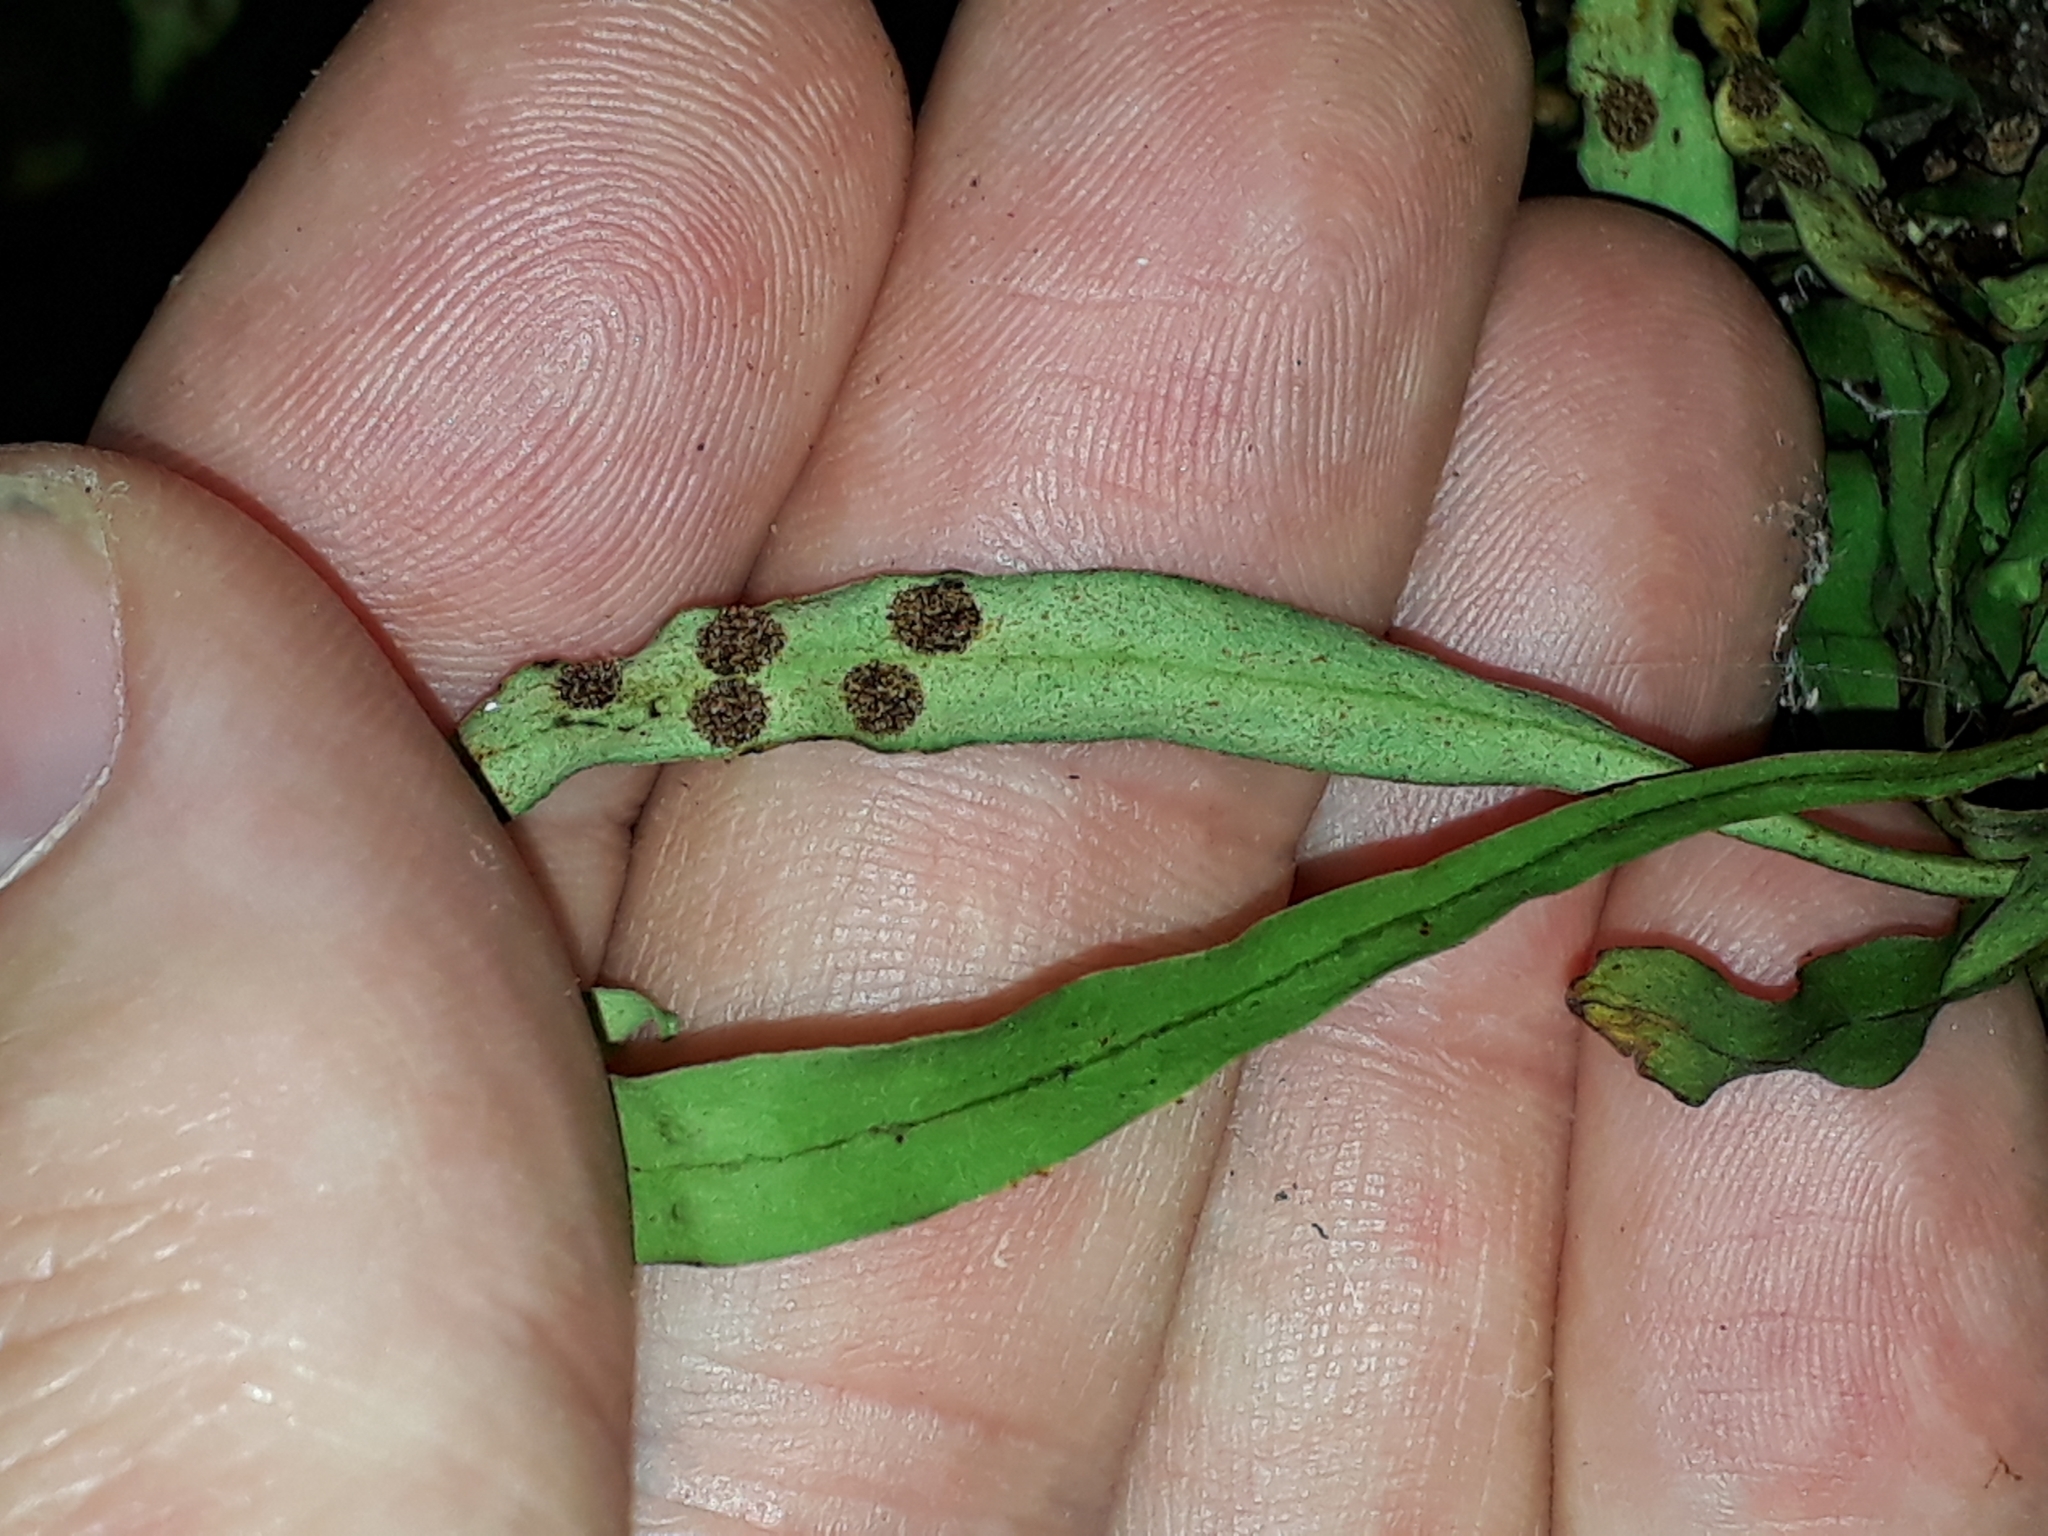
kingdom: Plantae
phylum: Tracheophyta
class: Polypodiopsida
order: Polypodiales
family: Polypodiaceae
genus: Loxogramme
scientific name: Loxogramme dictyopteris
